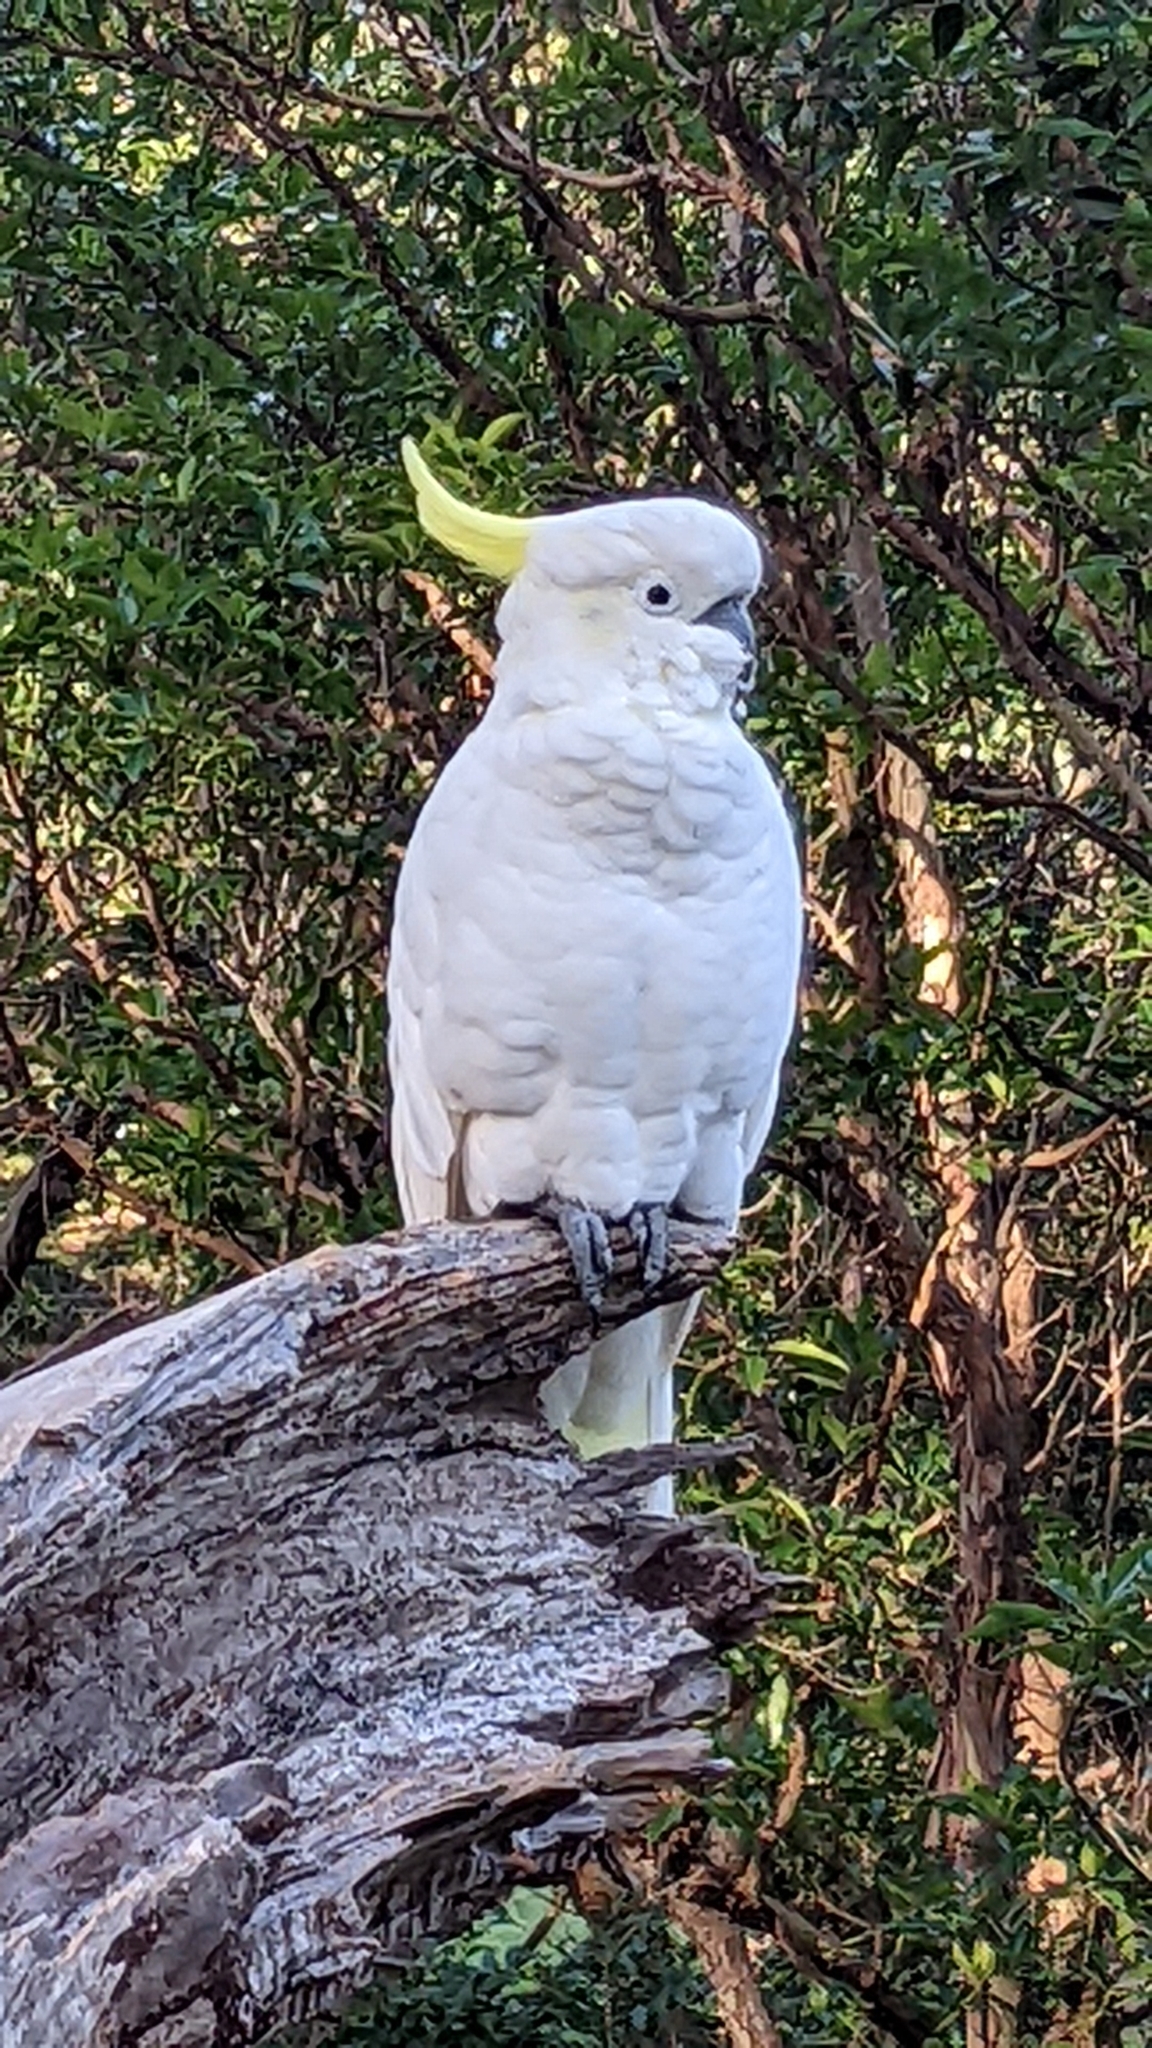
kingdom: Animalia
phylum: Chordata
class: Aves
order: Psittaciformes
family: Psittacidae
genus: Cacatua
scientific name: Cacatua galerita
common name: Sulphur-crested cockatoo
